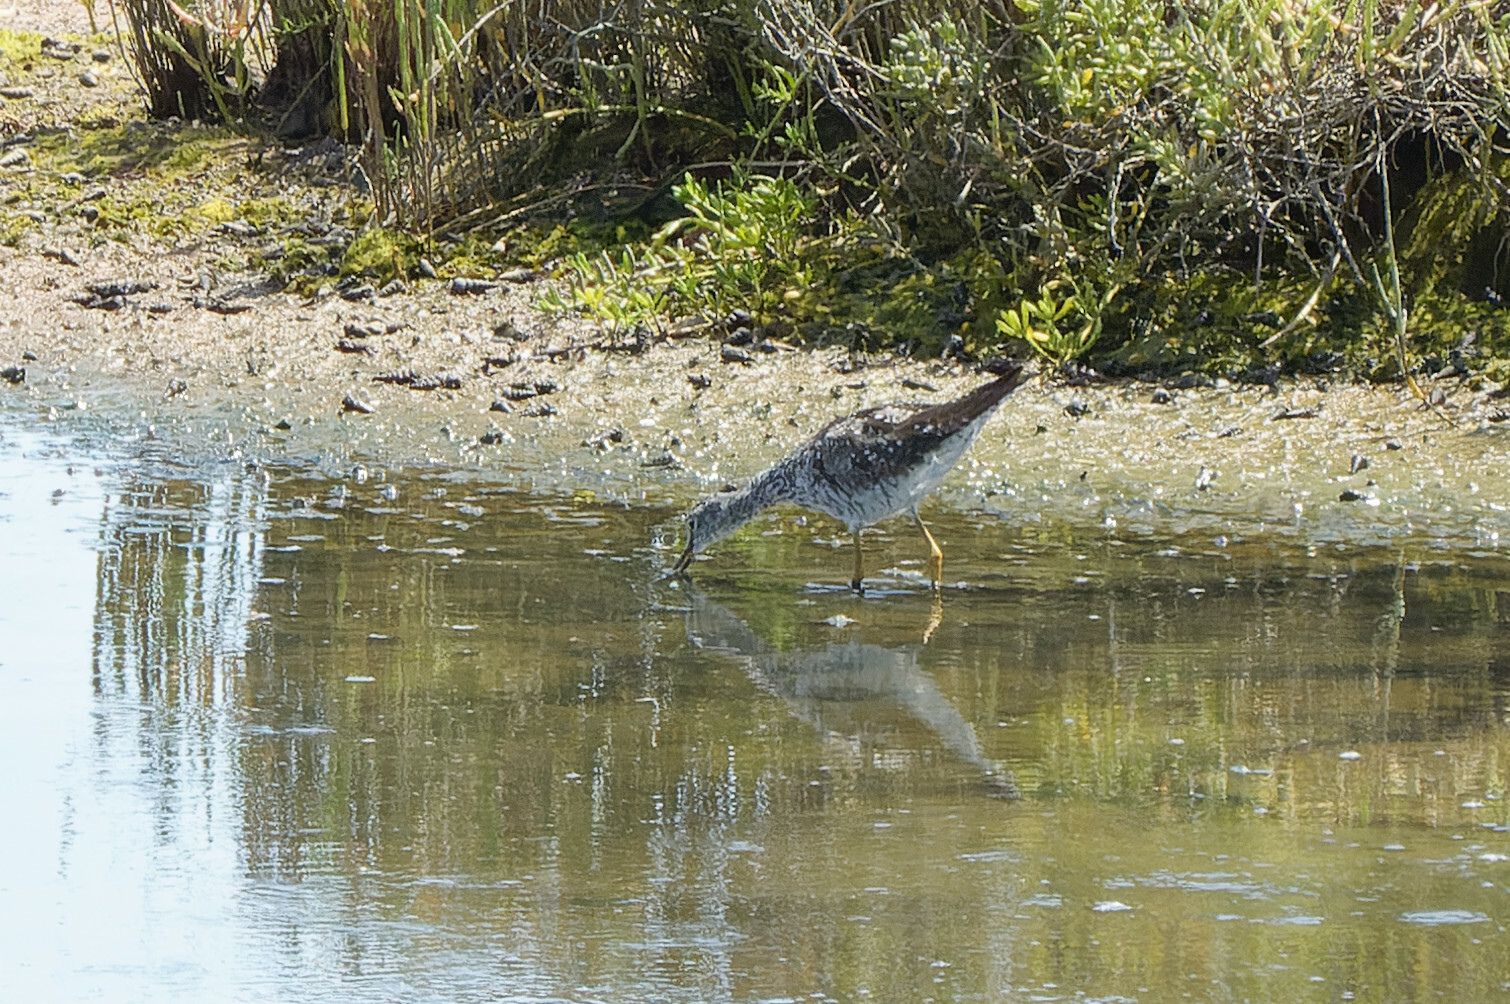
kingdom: Animalia
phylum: Chordata
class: Aves
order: Charadriiformes
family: Scolopacidae
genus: Tringa
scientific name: Tringa melanoleuca
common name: Greater yellowlegs
